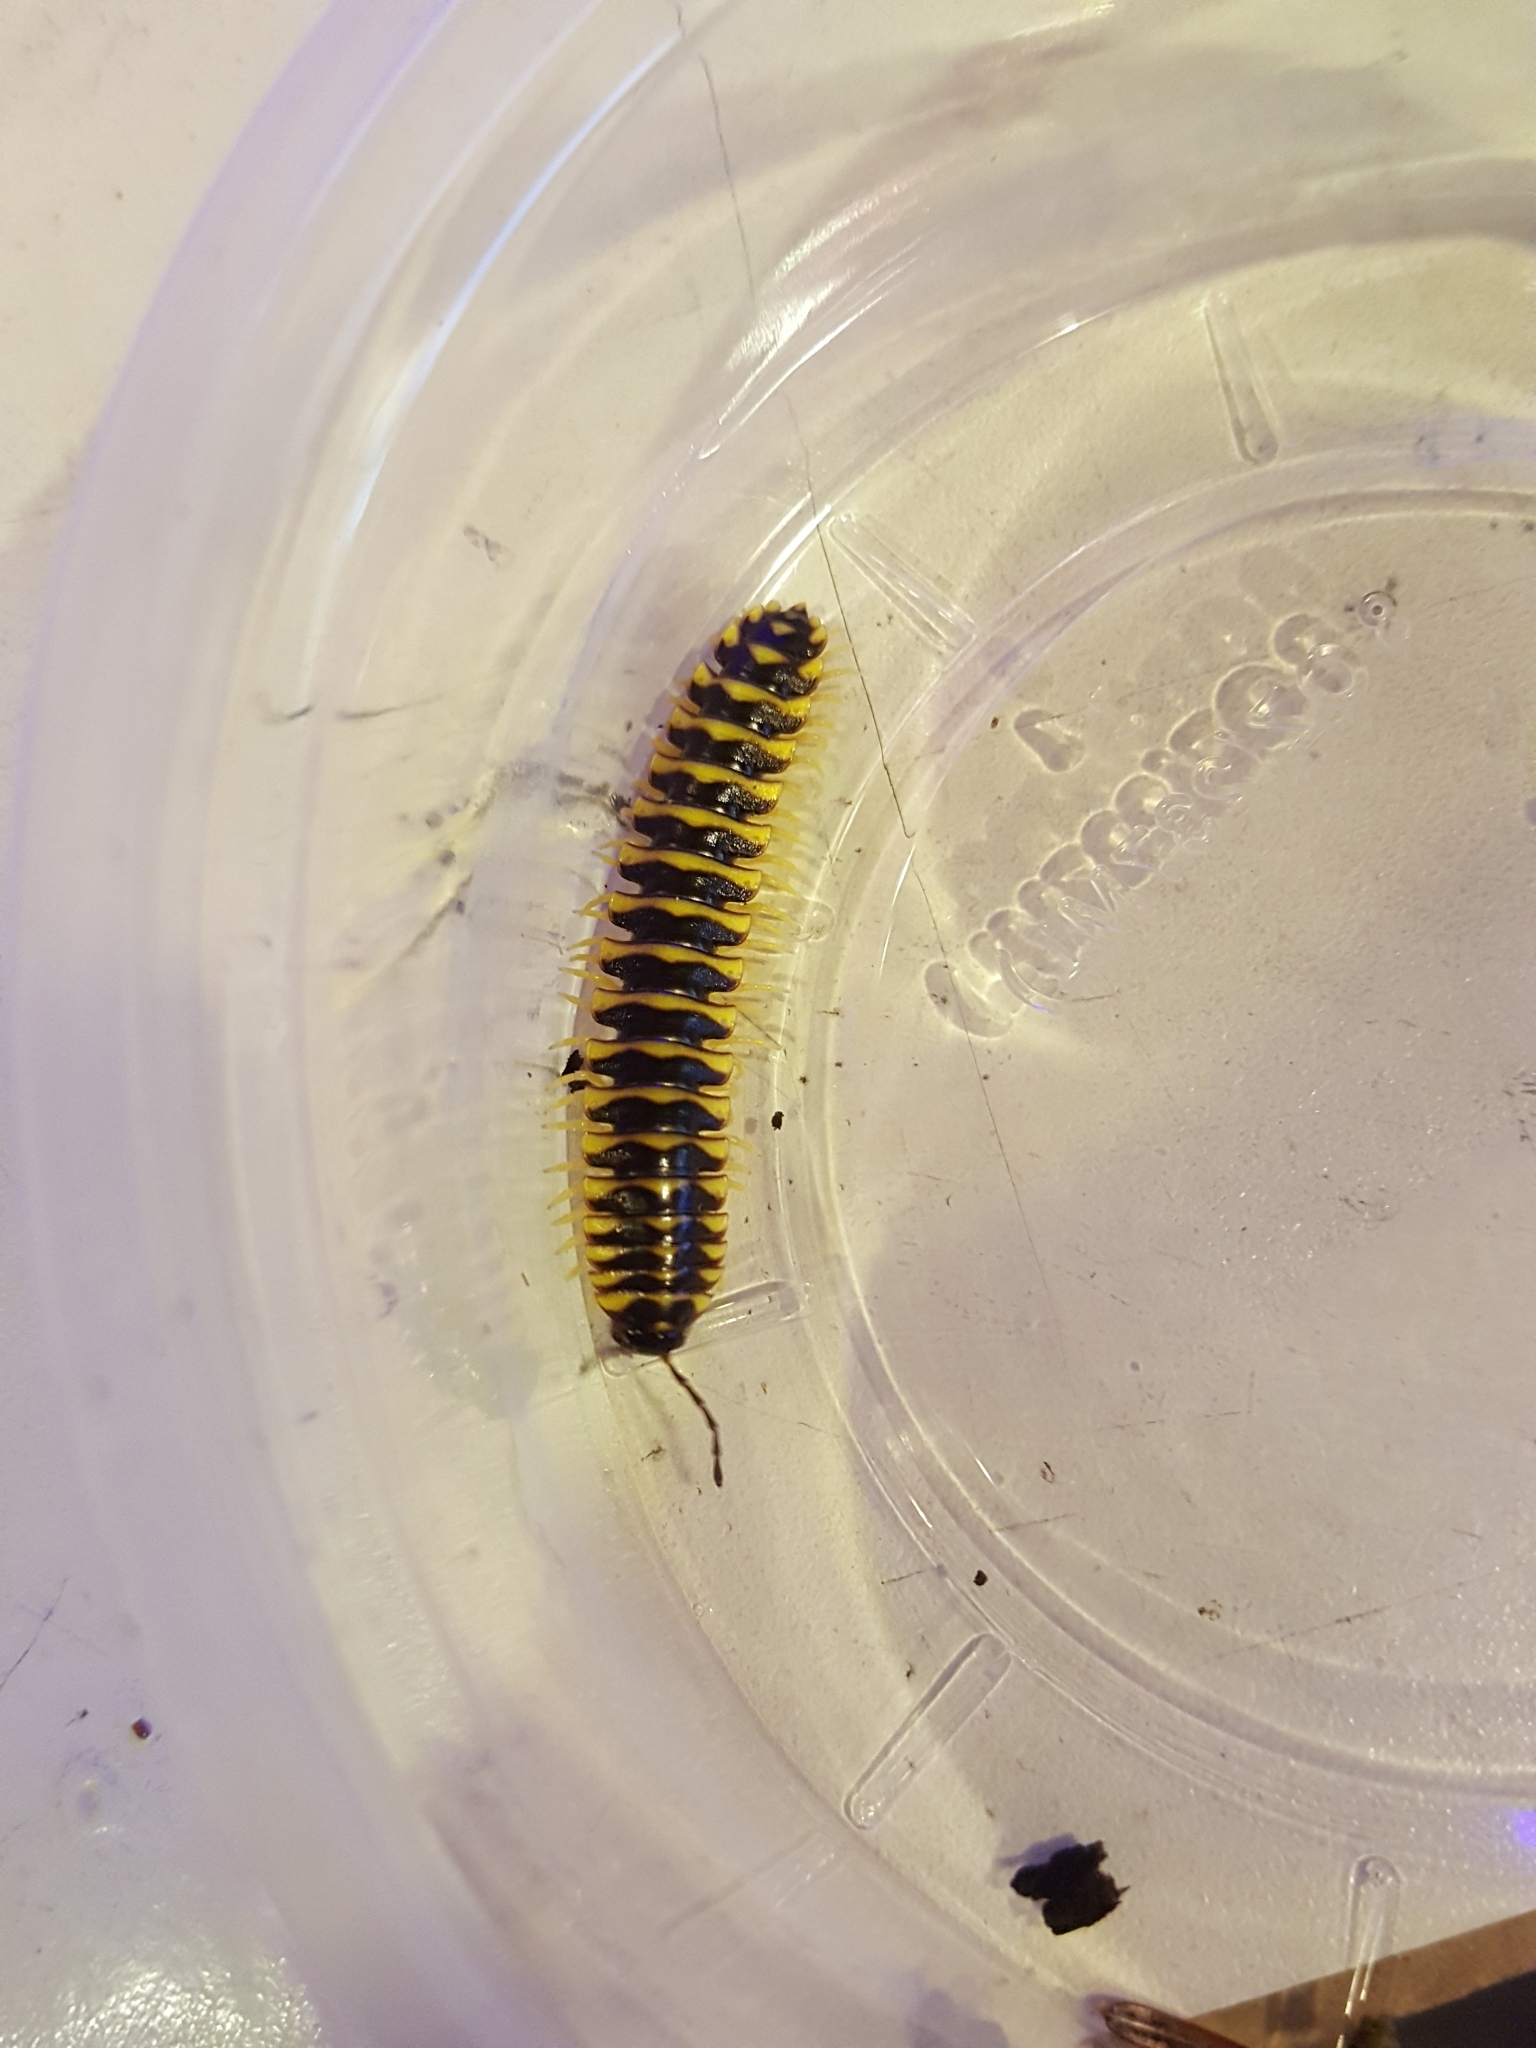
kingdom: Animalia
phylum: Arthropoda
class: Diplopoda
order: Polydesmida
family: Xystodesmidae
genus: Sigmoria
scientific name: Sigmoria translineata
